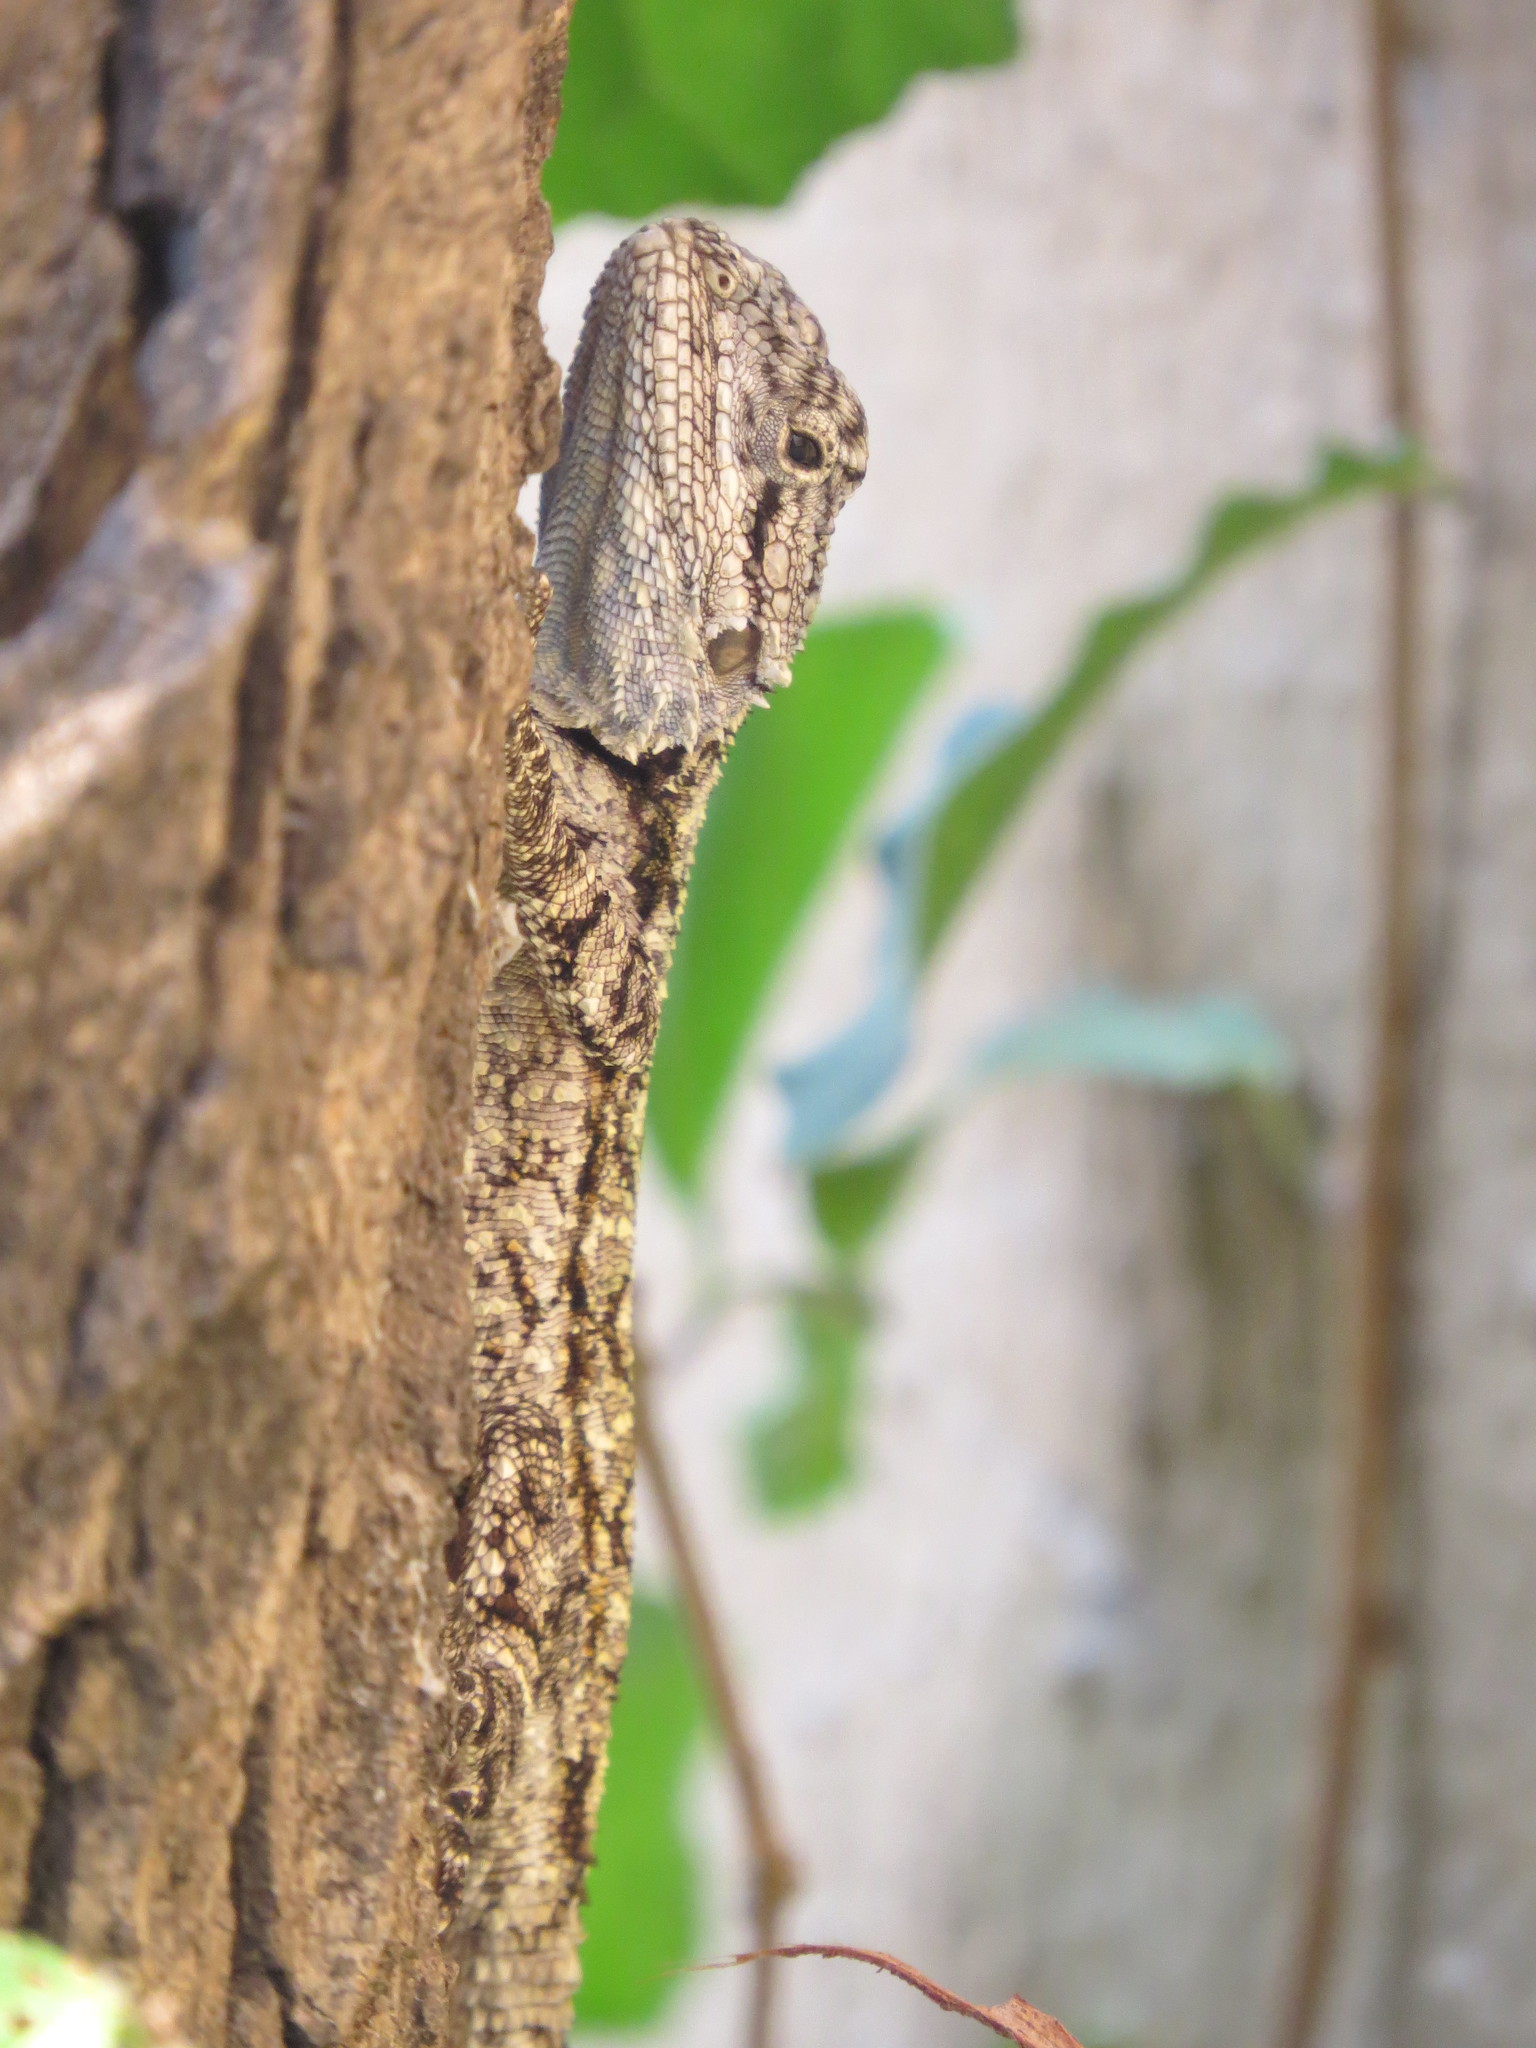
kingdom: Animalia
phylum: Chordata
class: Squamata
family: Agamidae
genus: Acanthocercus
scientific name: Acanthocercus atricollis
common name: Southern tree agama
